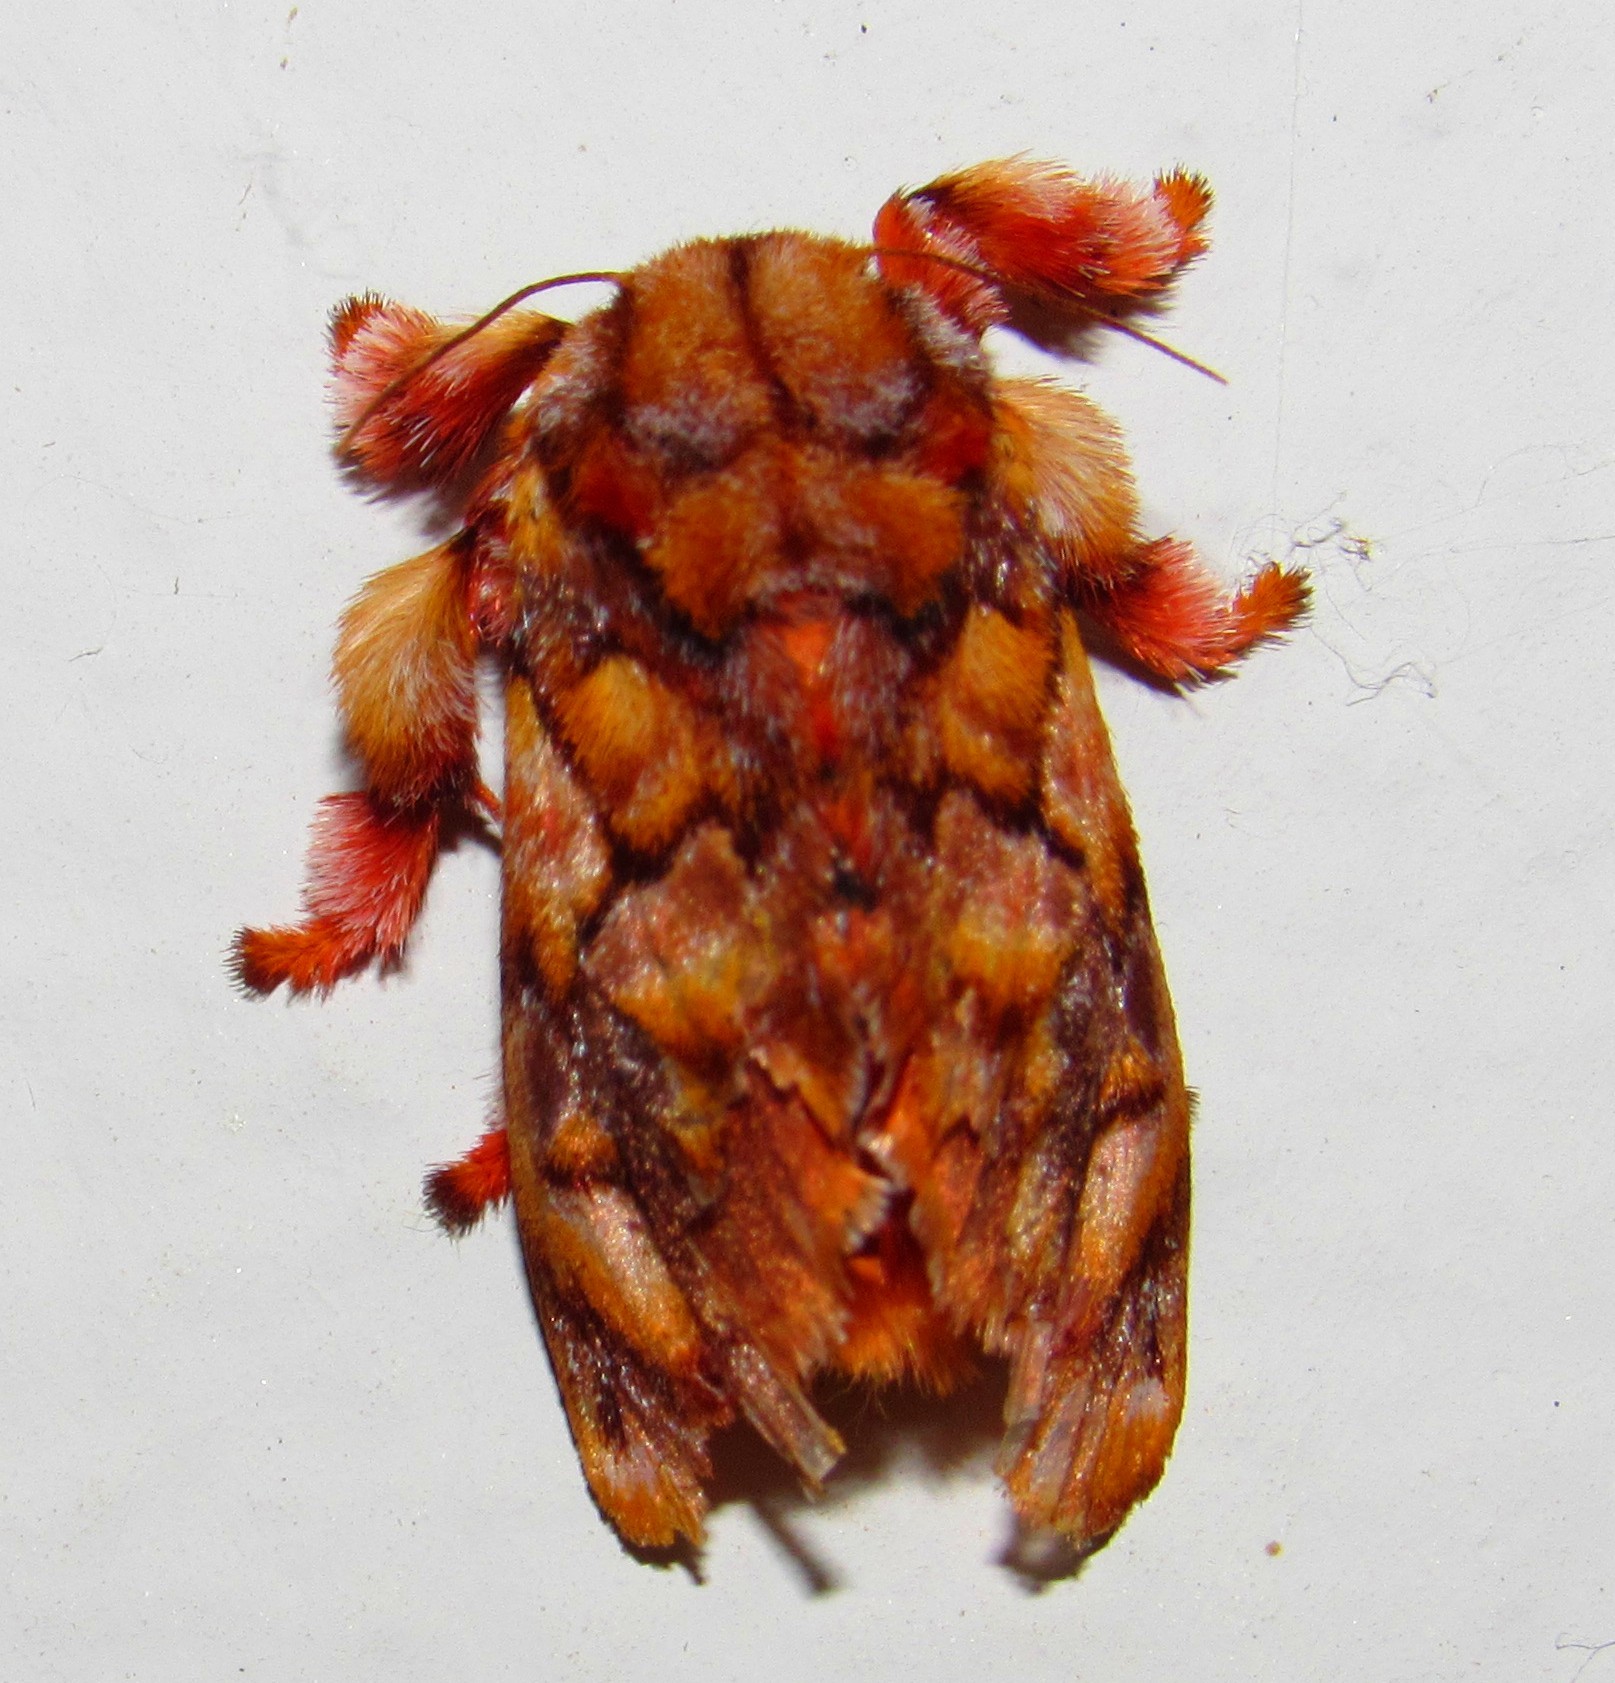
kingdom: Animalia
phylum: Arthropoda
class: Insecta
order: Lepidoptera
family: Limacodidae
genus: Phobetron
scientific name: Phobetron hipparchia
